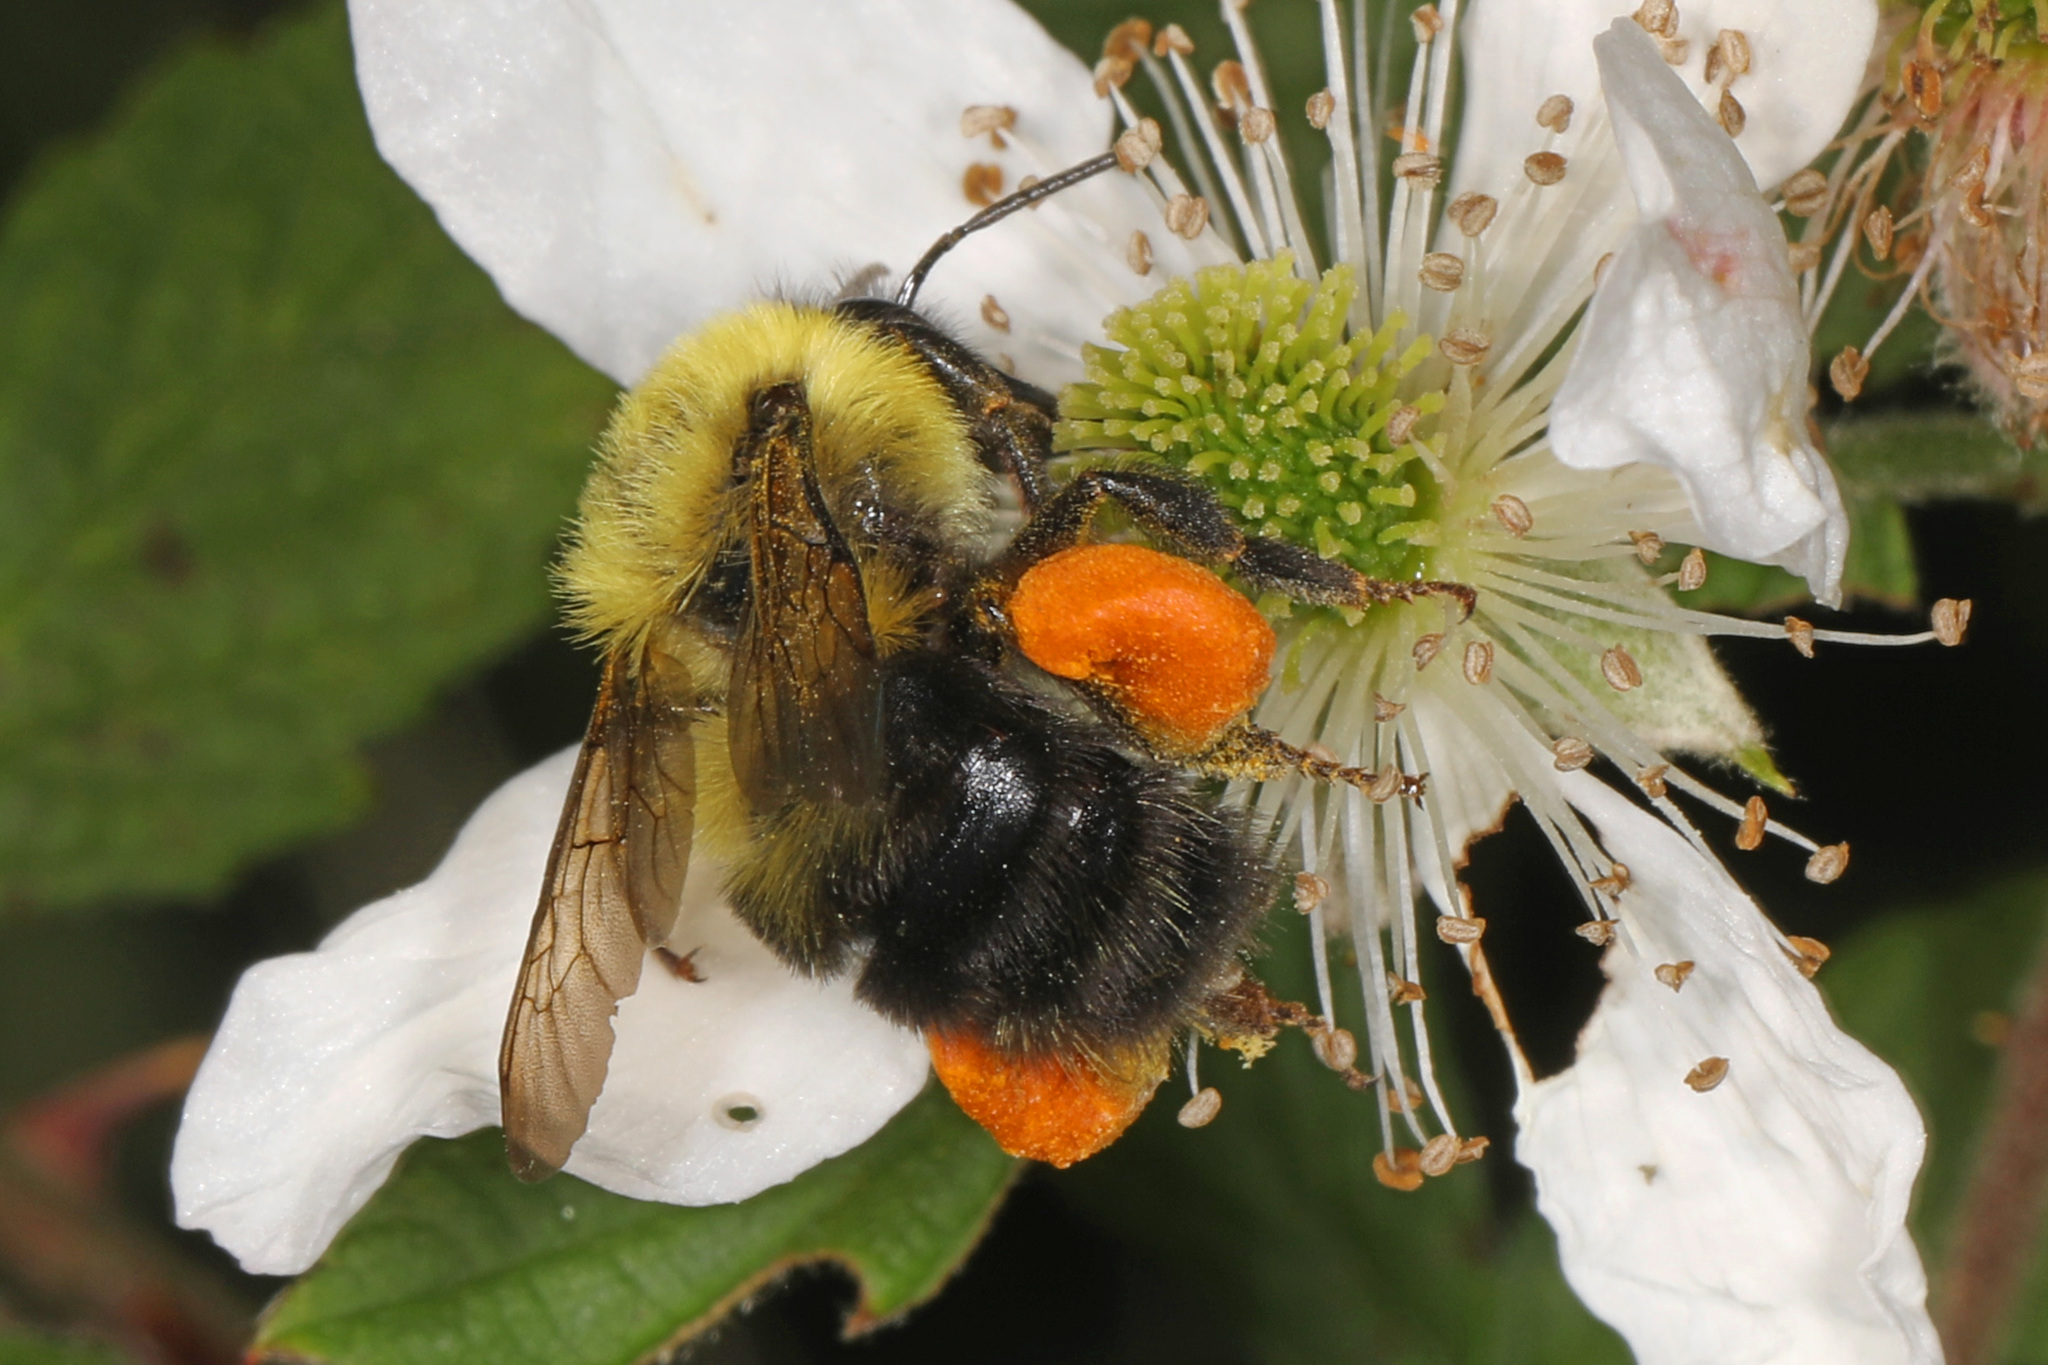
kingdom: Animalia
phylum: Arthropoda
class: Insecta
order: Hymenoptera
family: Apidae
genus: Bombus
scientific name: Bombus bimaculatus
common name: Two-spotted bumble bee
